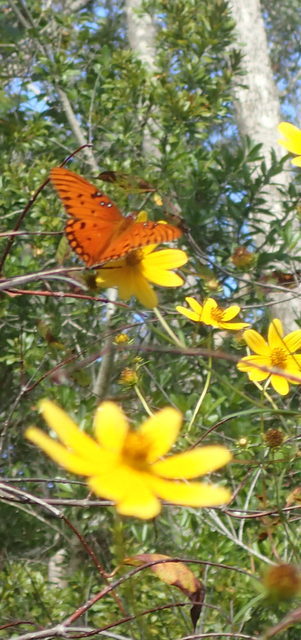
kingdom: Animalia
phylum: Arthropoda
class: Insecta
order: Lepidoptera
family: Nymphalidae
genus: Dione
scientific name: Dione vanillae
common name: Gulf fritillary
